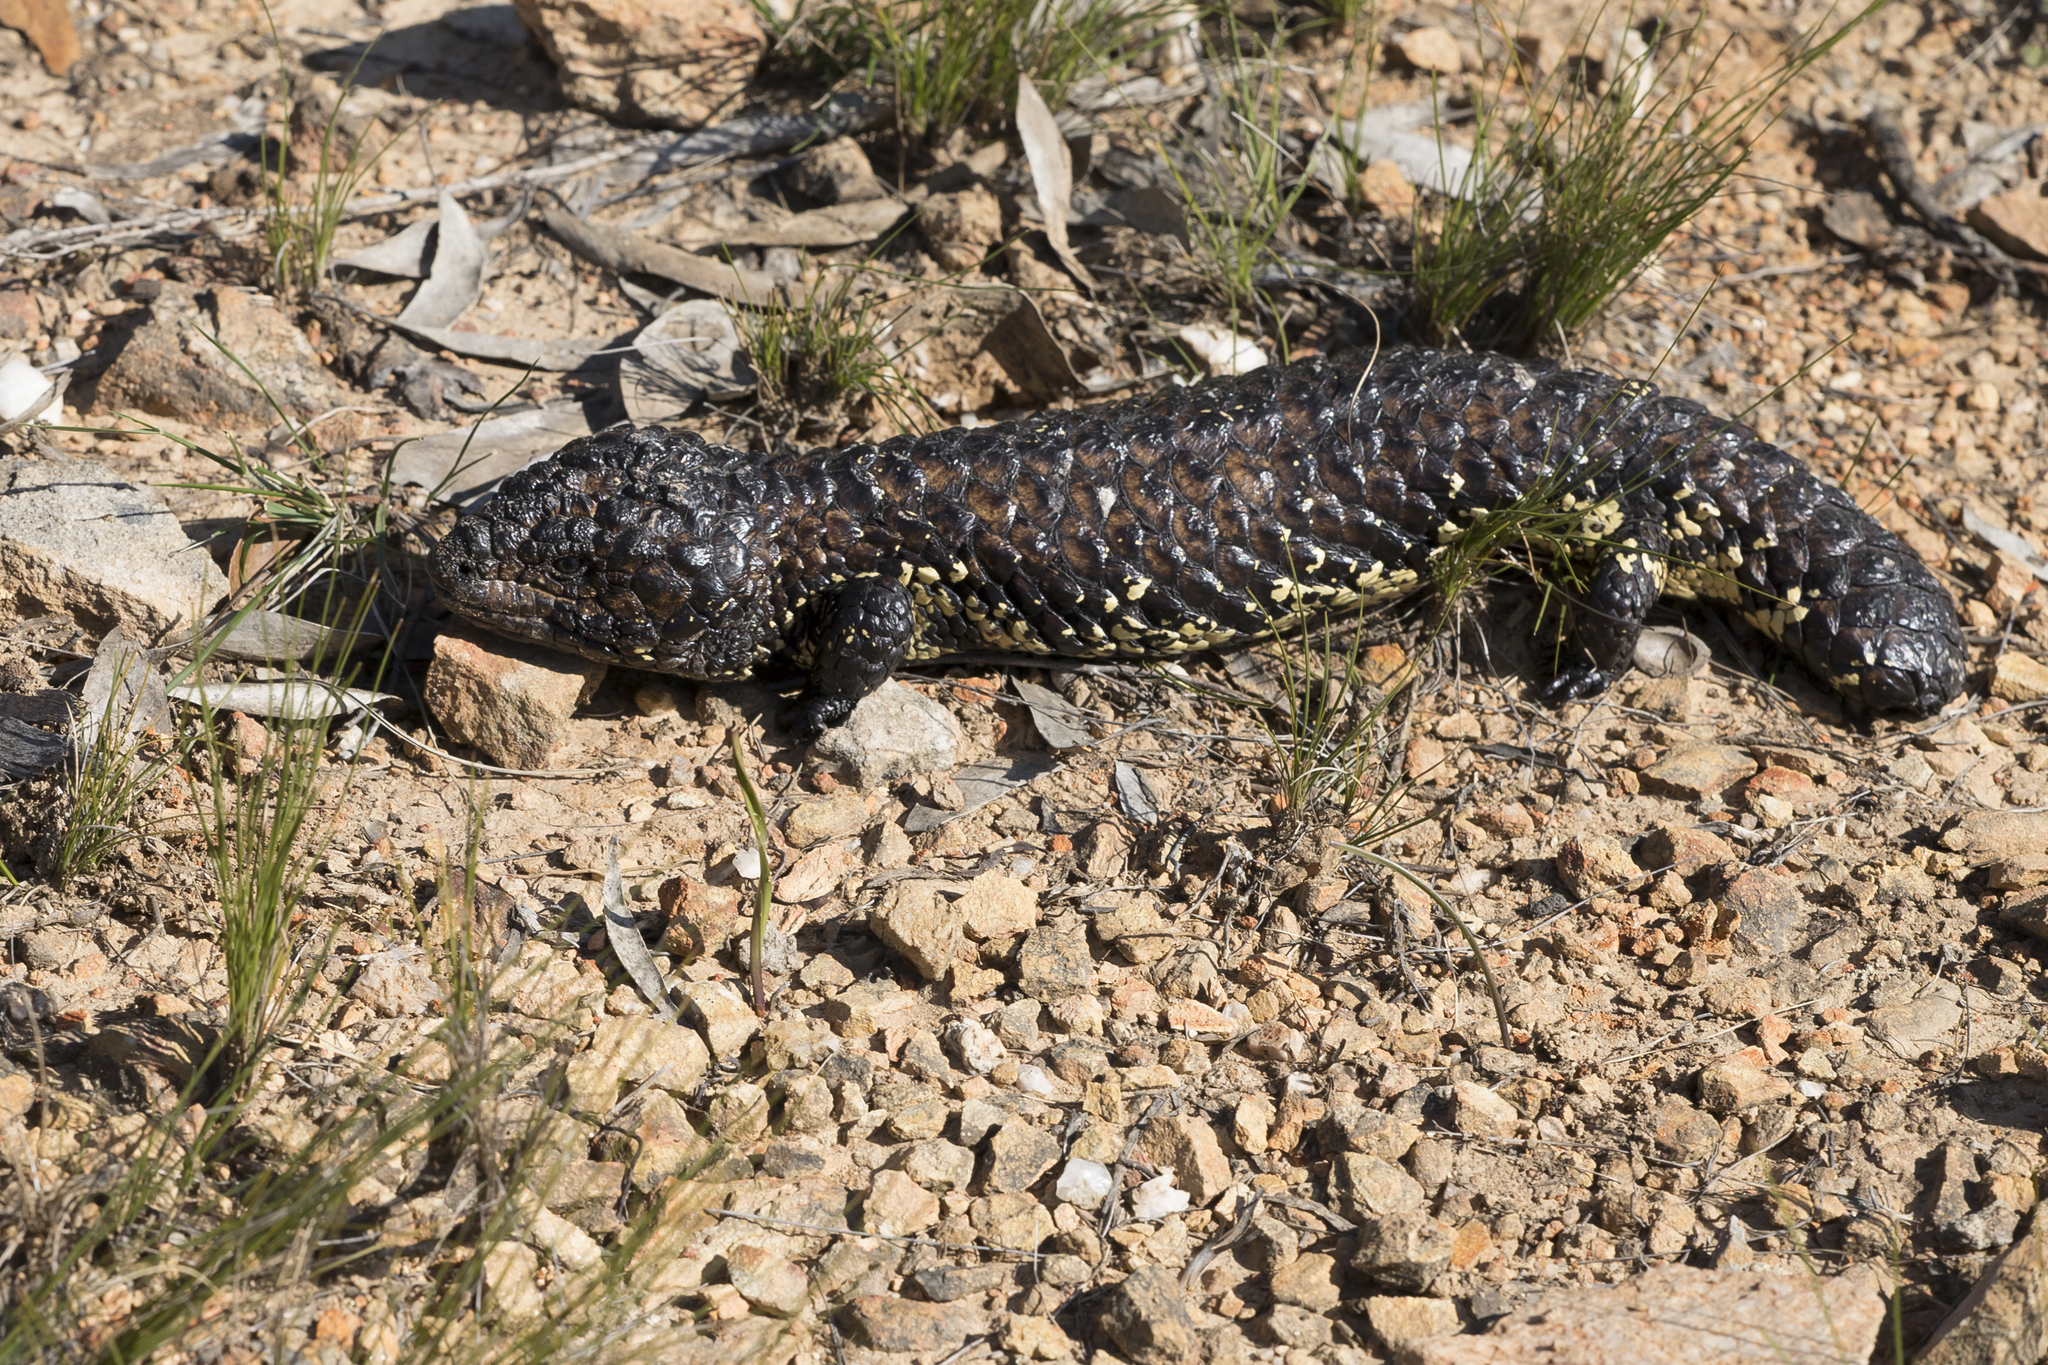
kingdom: Animalia
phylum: Chordata
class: Squamata
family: Scincidae
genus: Tiliqua
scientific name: Tiliqua rugosa
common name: Pinecone lizard
